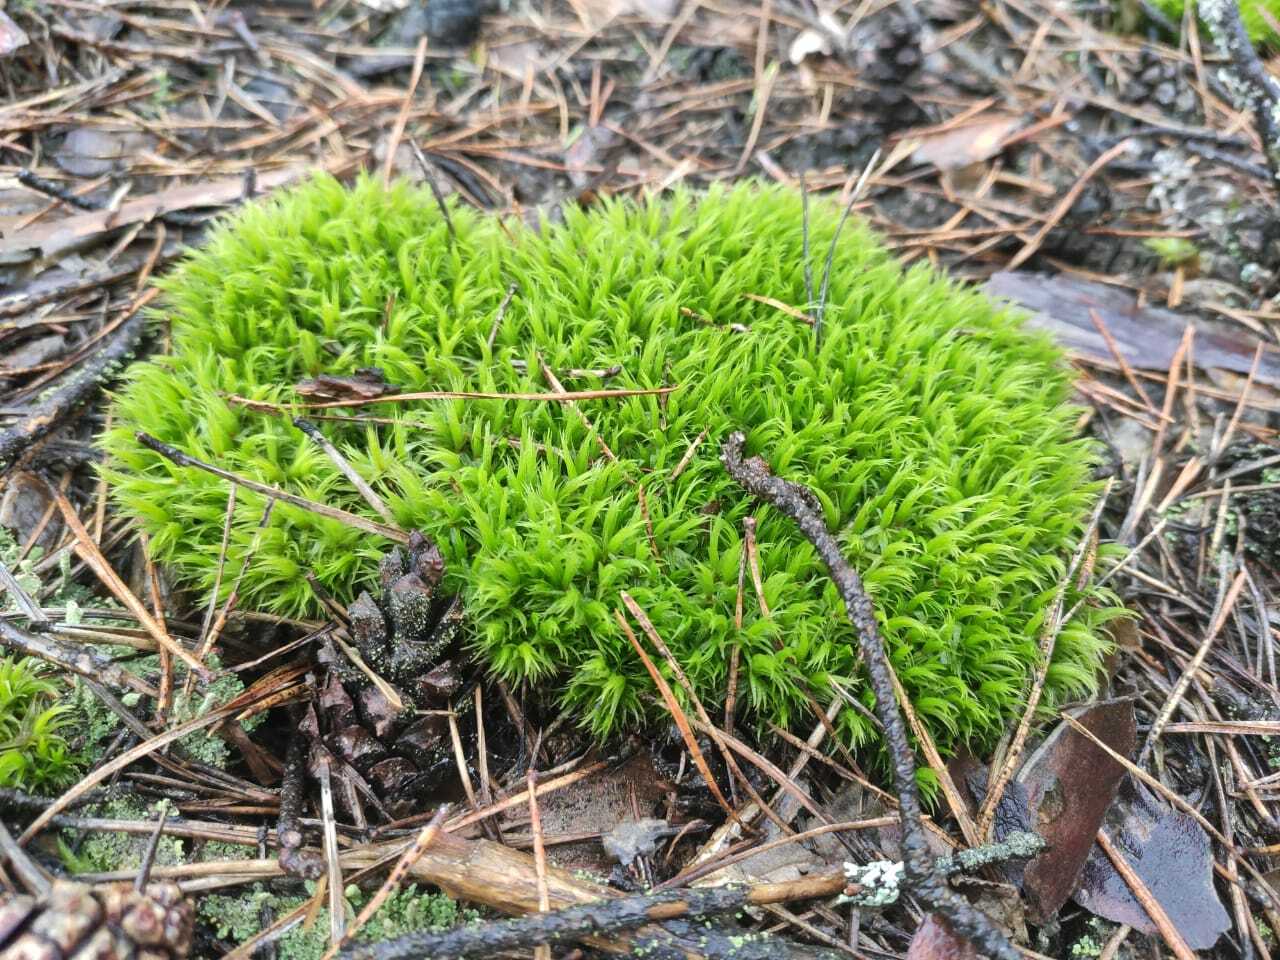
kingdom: Plantae
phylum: Bryophyta
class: Bryopsida
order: Dicranales
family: Leucobryaceae
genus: Leucobryum
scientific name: Leucobryum glaucum
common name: Large white-moss
